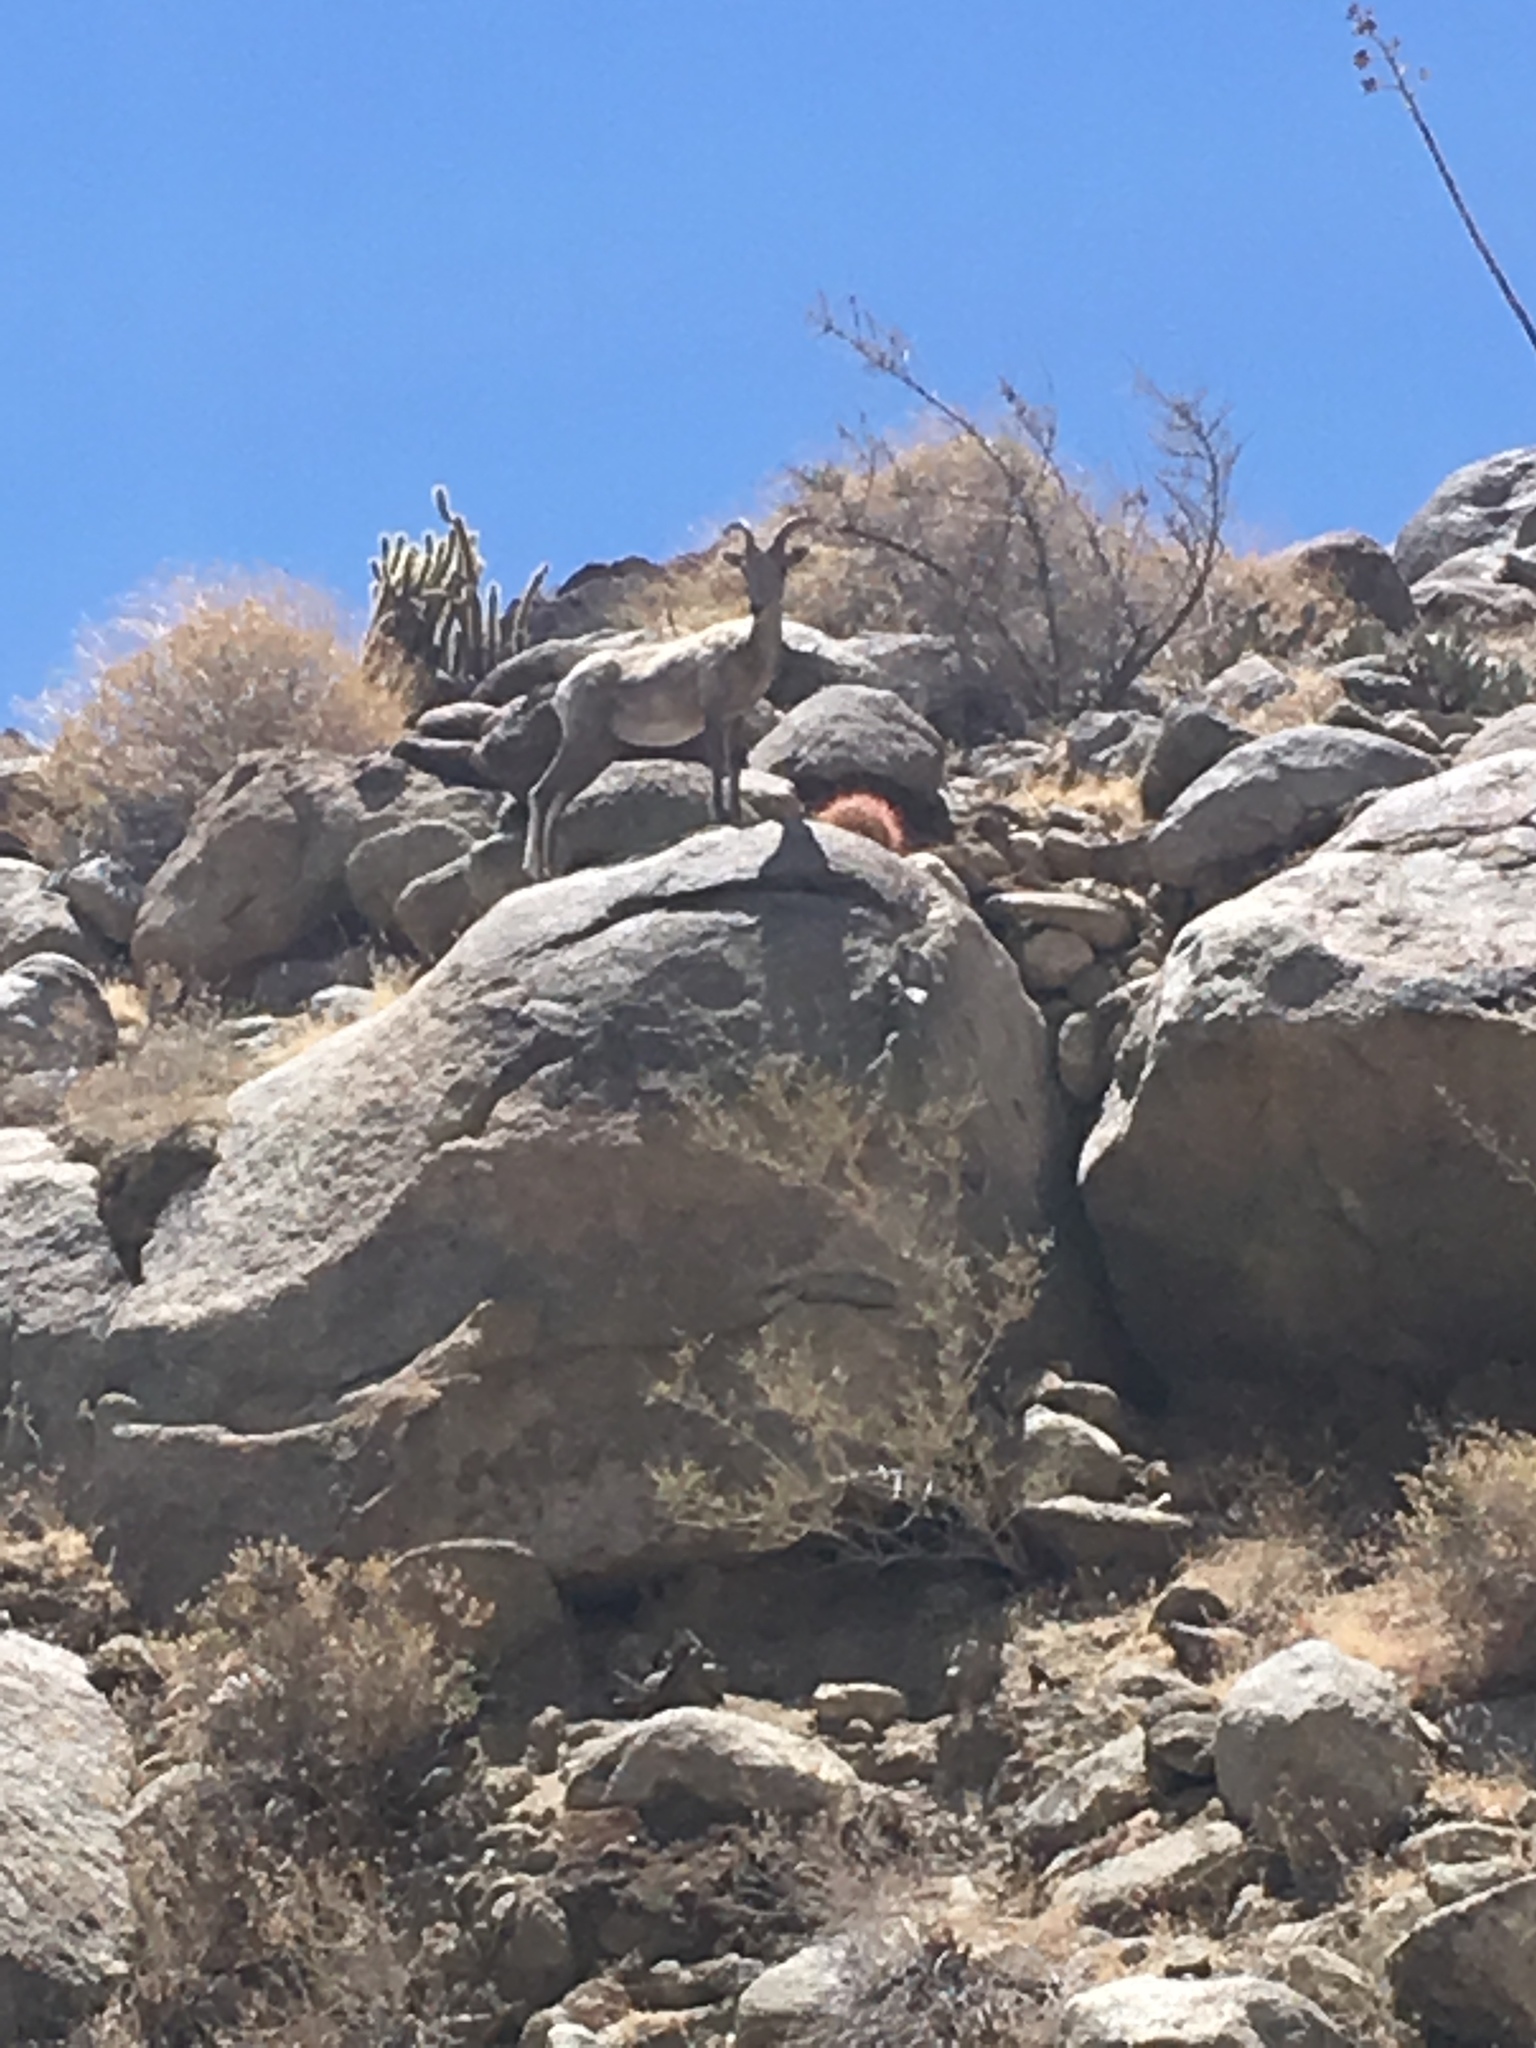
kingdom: Animalia
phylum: Chordata
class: Mammalia
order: Artiodactyla
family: Bovidae
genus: Ovis
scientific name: Ovis canadensis
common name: Bighorn sheep
